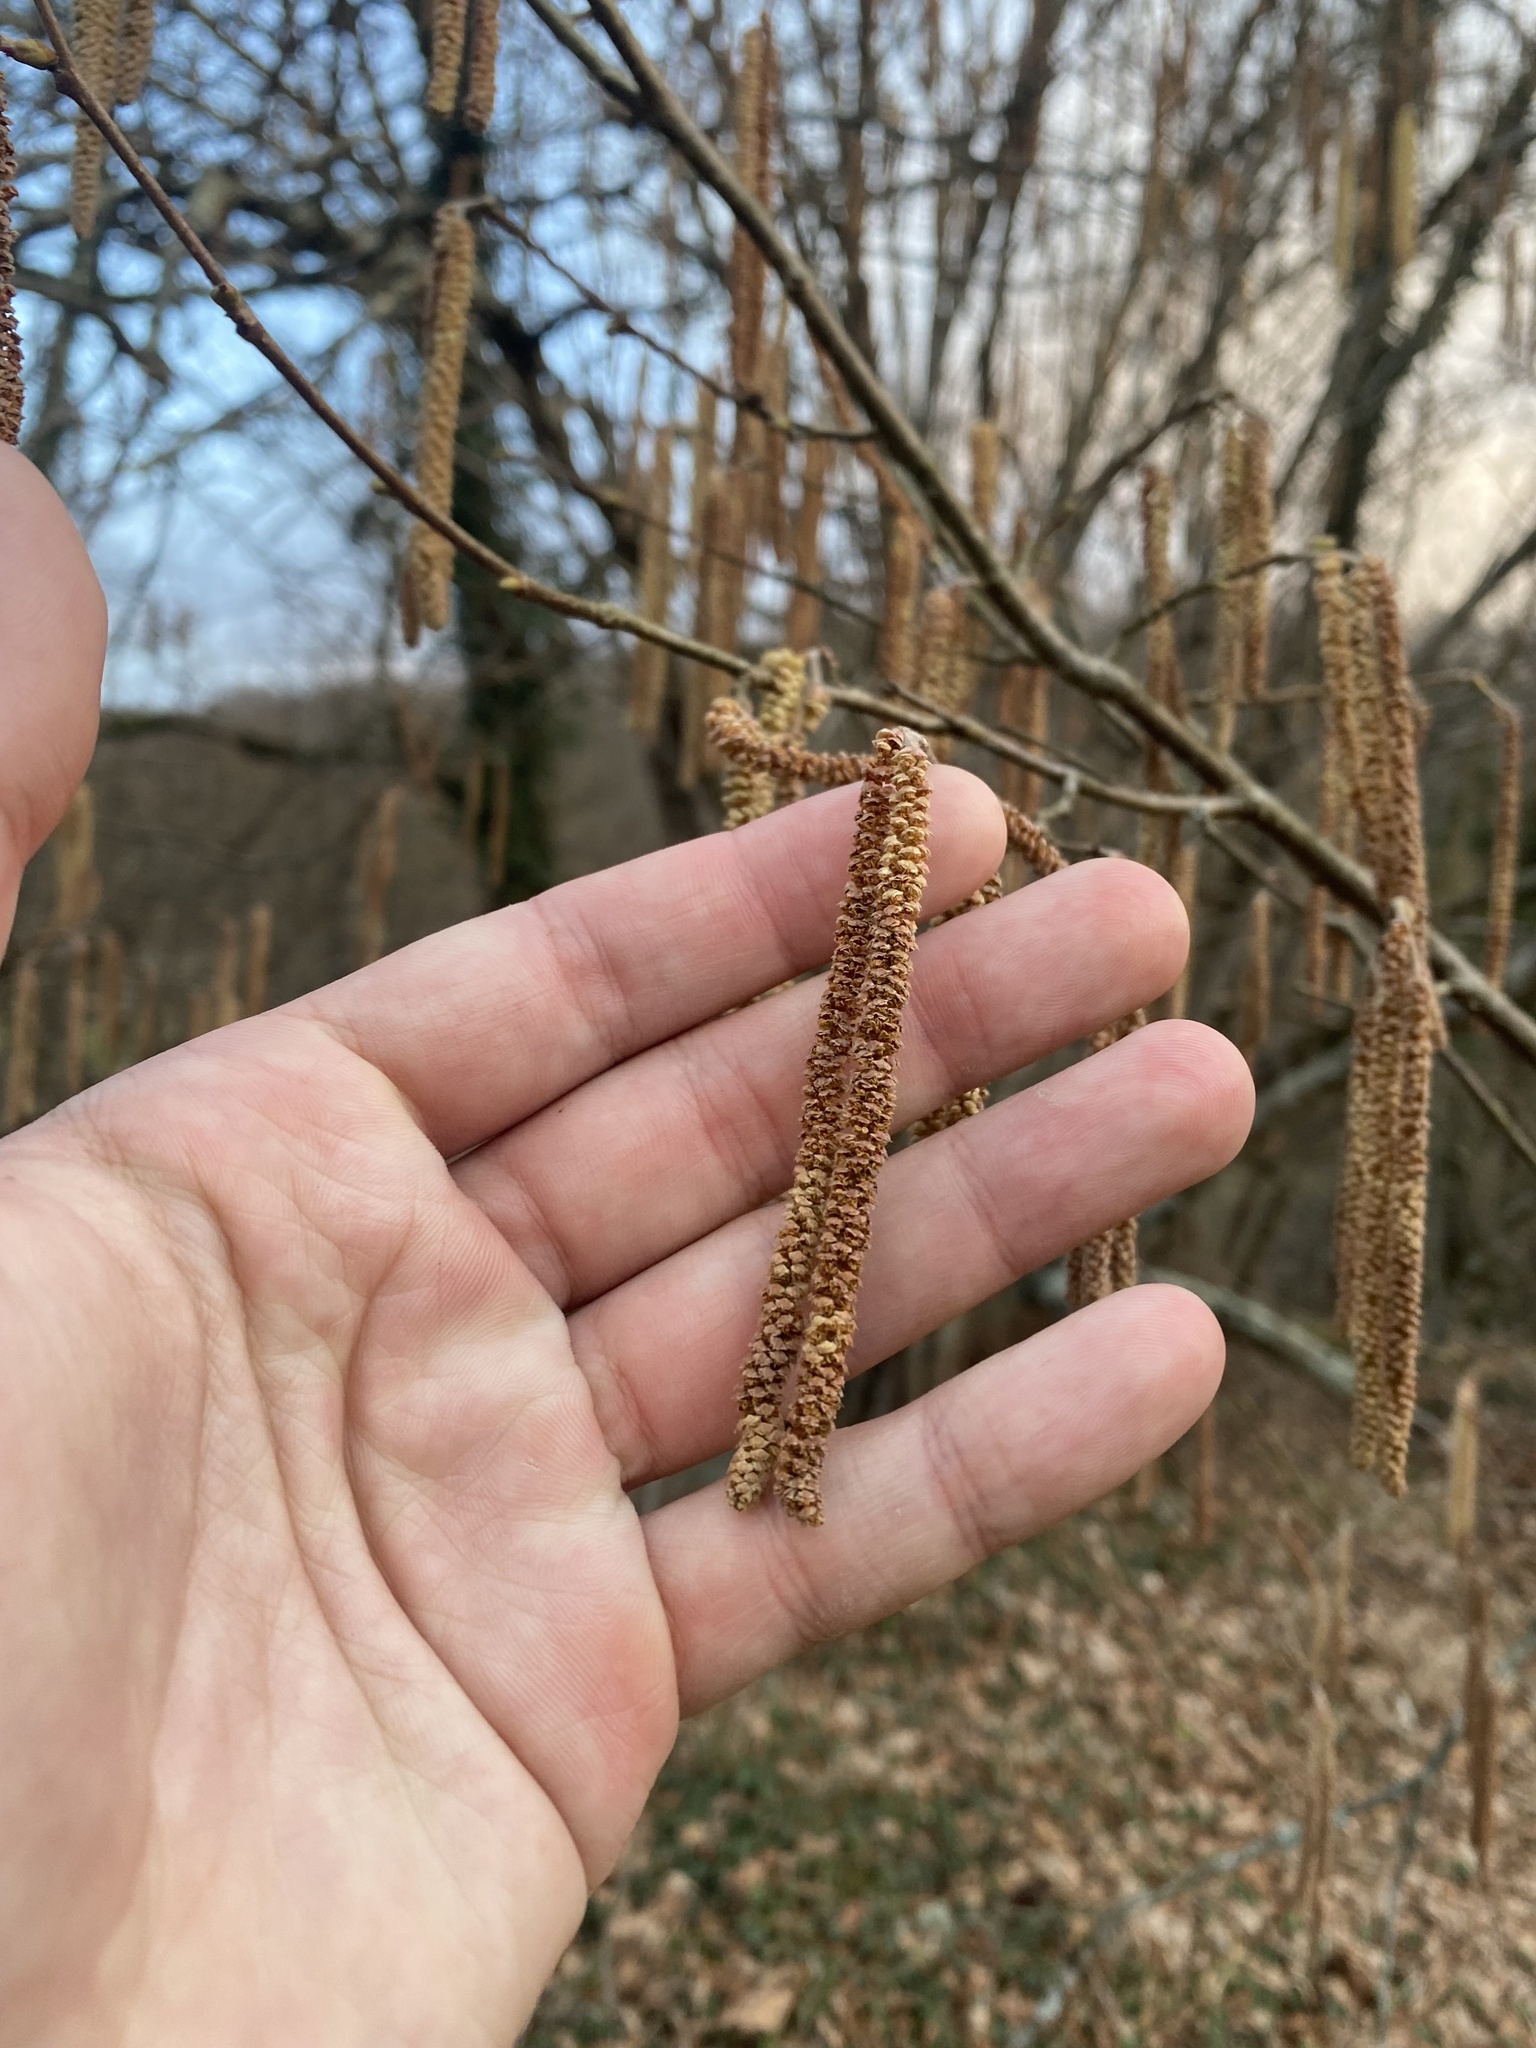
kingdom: Plantae
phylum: Tracheophyta
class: Magnoliopsida
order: Fagales
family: Betulaceae
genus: Corylus
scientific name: Corylus avellana
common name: European hazel
